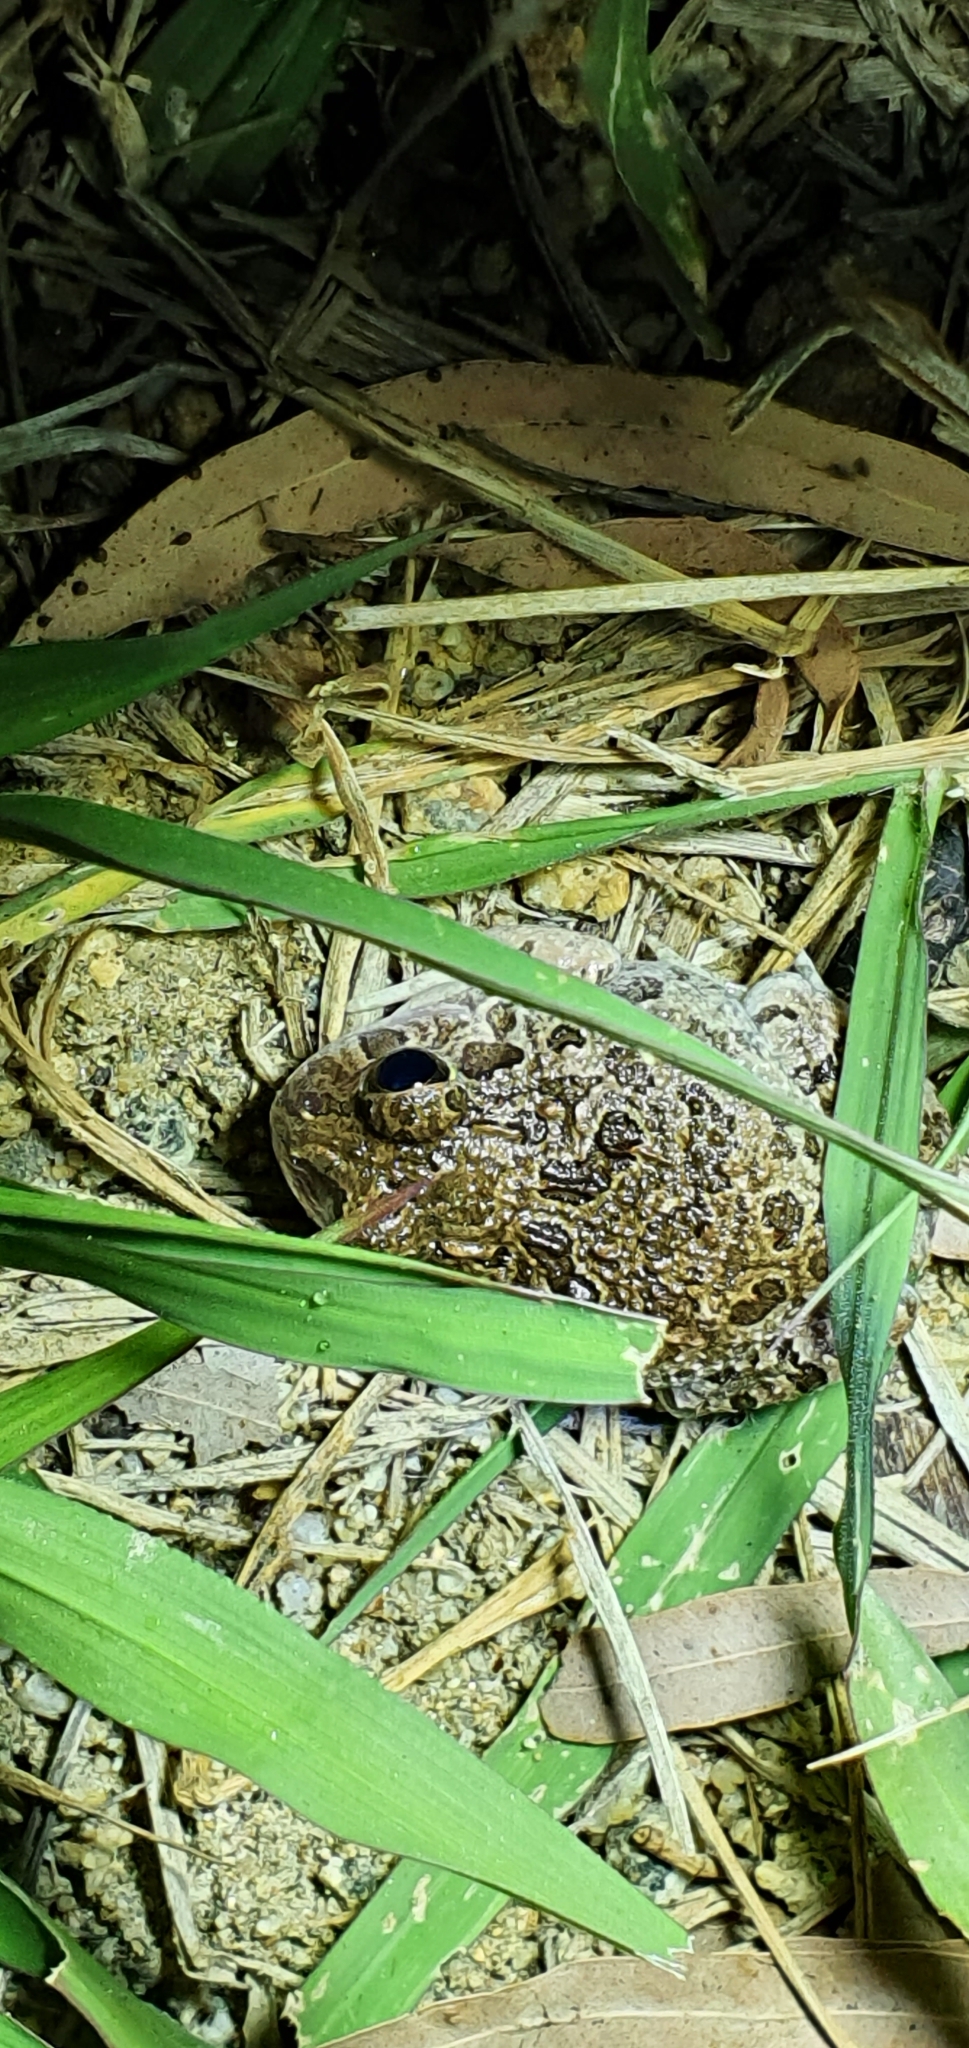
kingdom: Animalia
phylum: Chordata
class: Amphibia
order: Anura
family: Limnodynastidae
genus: Platyplectrum
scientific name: Platyplectrum ornatum
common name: Ornate burrowing frog
